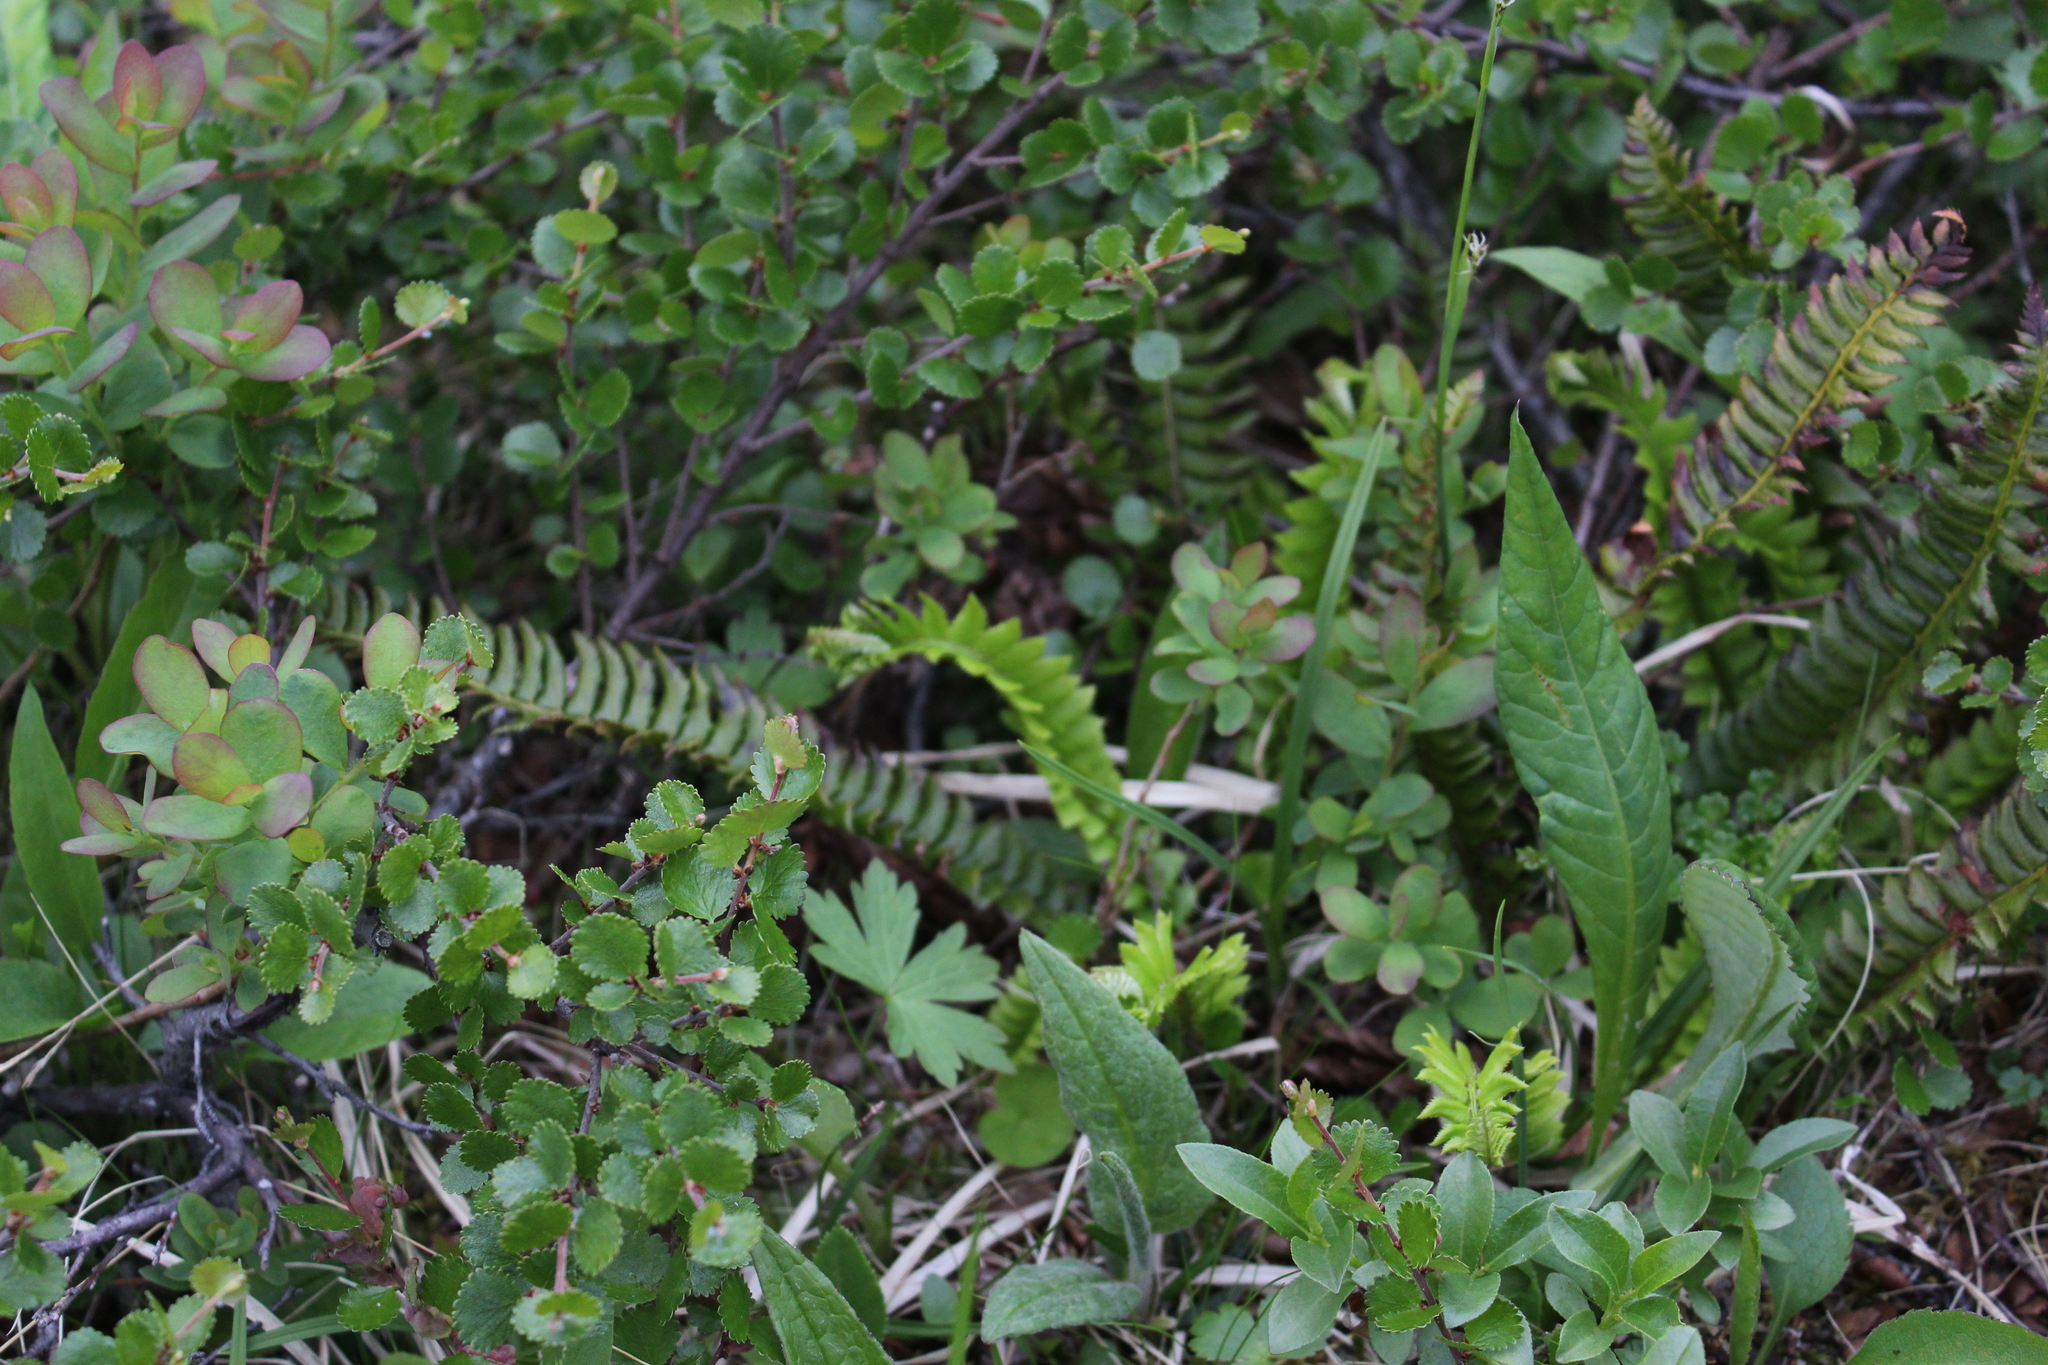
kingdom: Plantae
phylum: Tracheophyta
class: Polypodiopsida
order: Polypodiales
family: Dryopteridaceae
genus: Polystichum
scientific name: Polystichum lonchitis
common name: Holly fern
